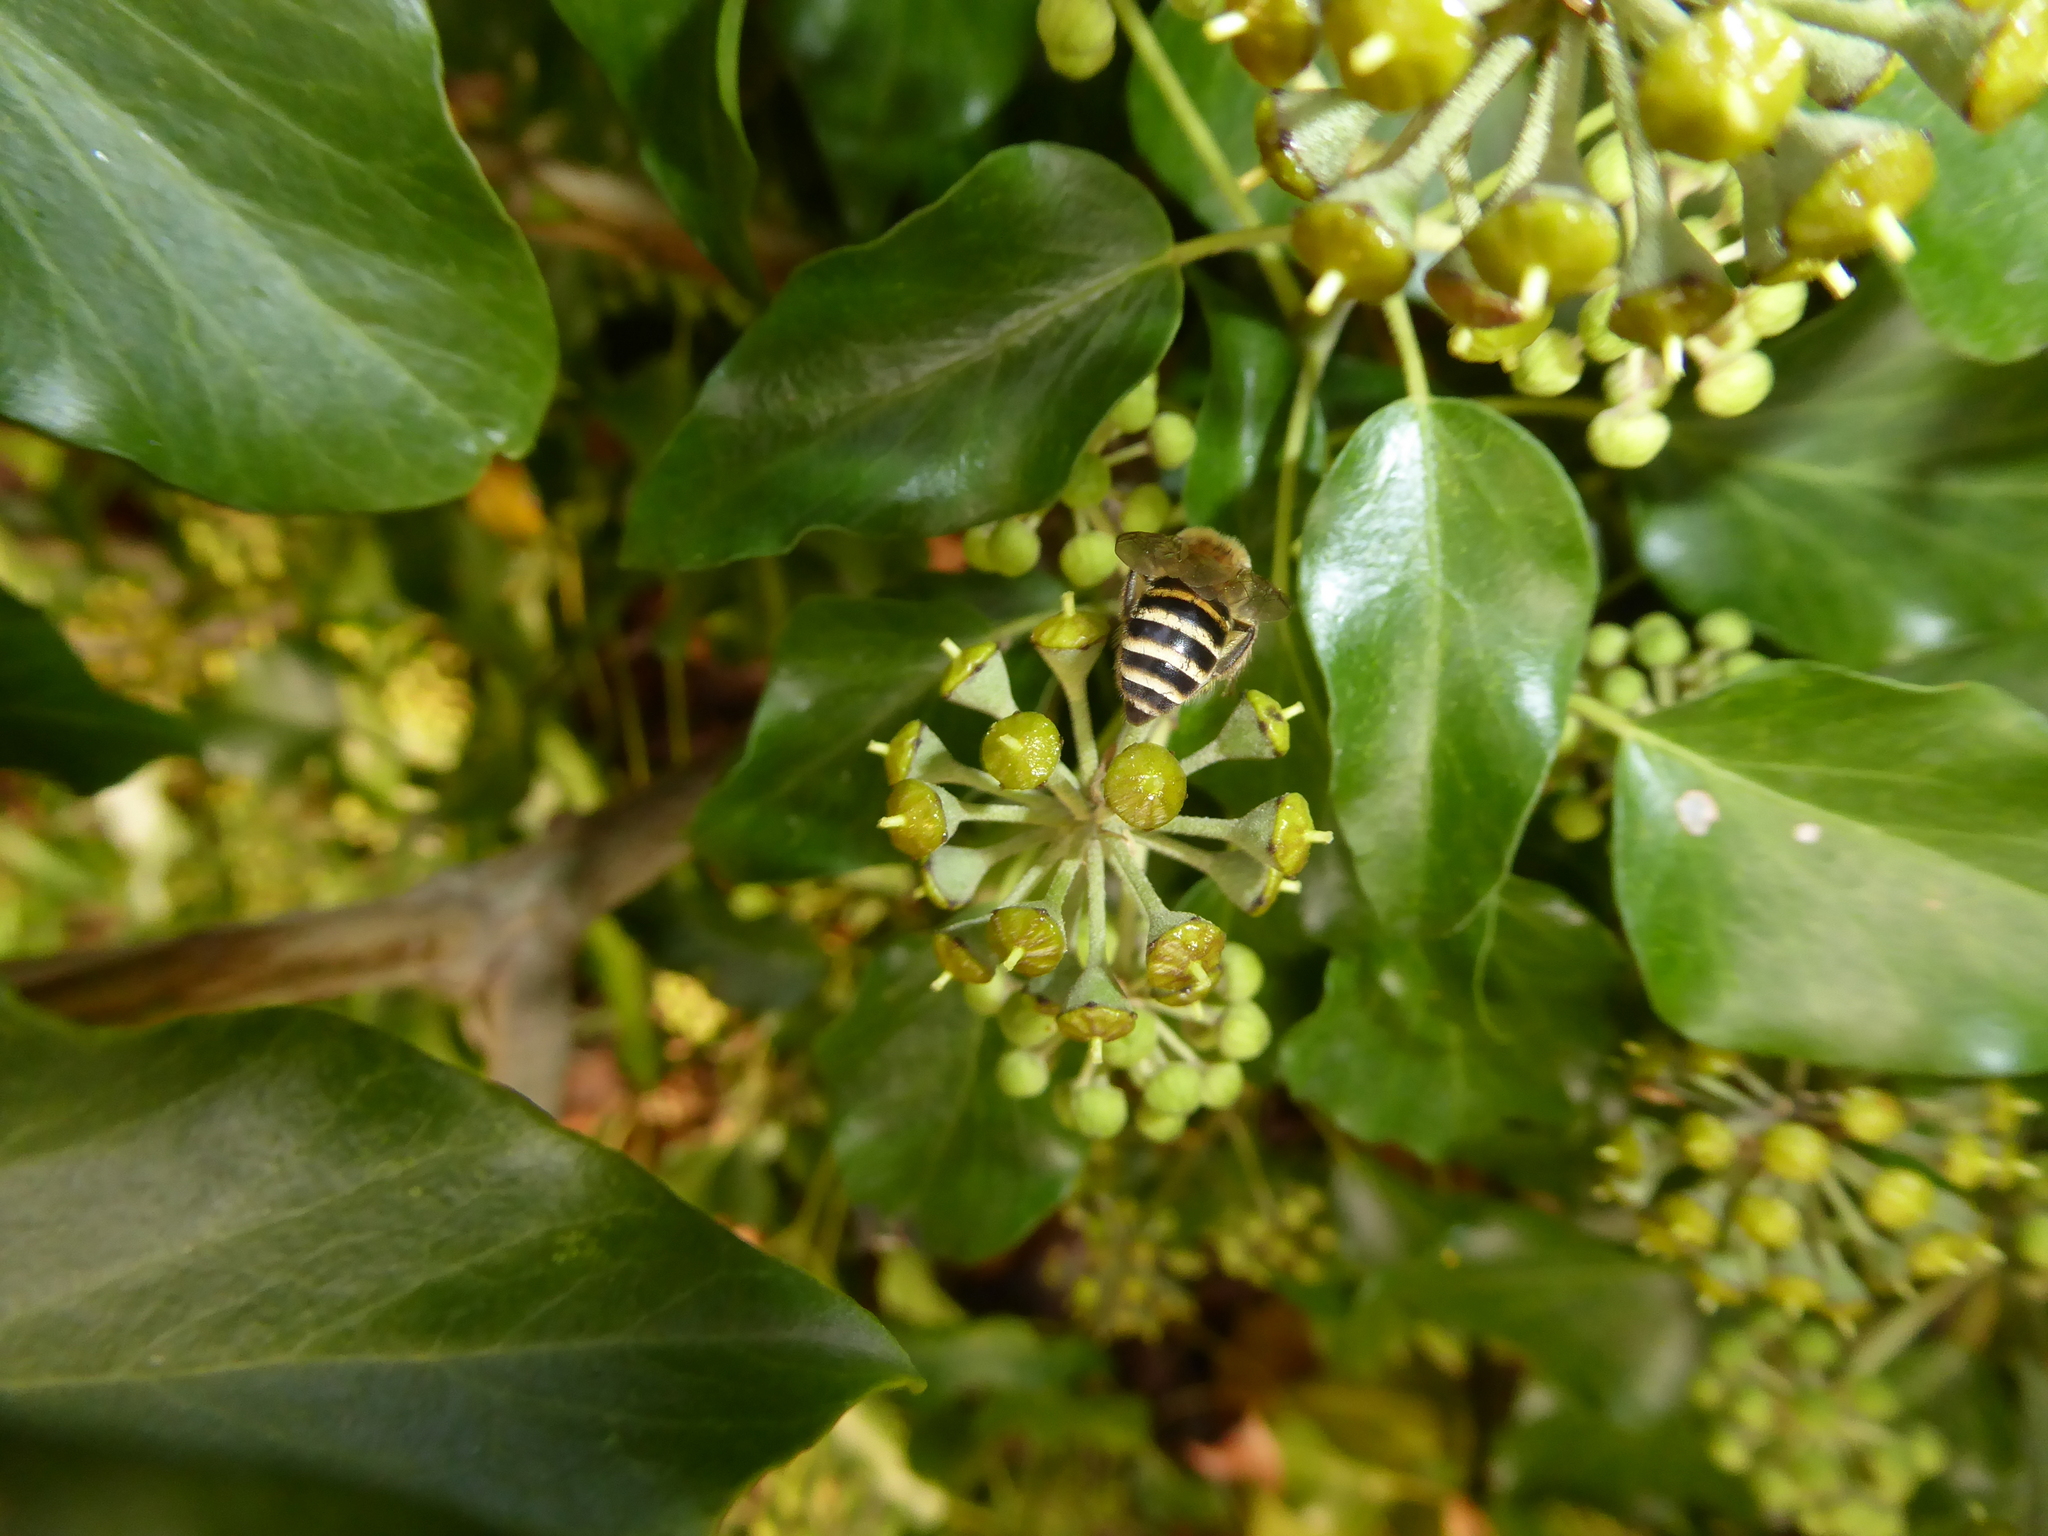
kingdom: Animalia
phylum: Arthropoda
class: Insecta
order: Hymenoptera
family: Colletidae
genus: Colletes
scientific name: Colletes hederae
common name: Ivy bee
